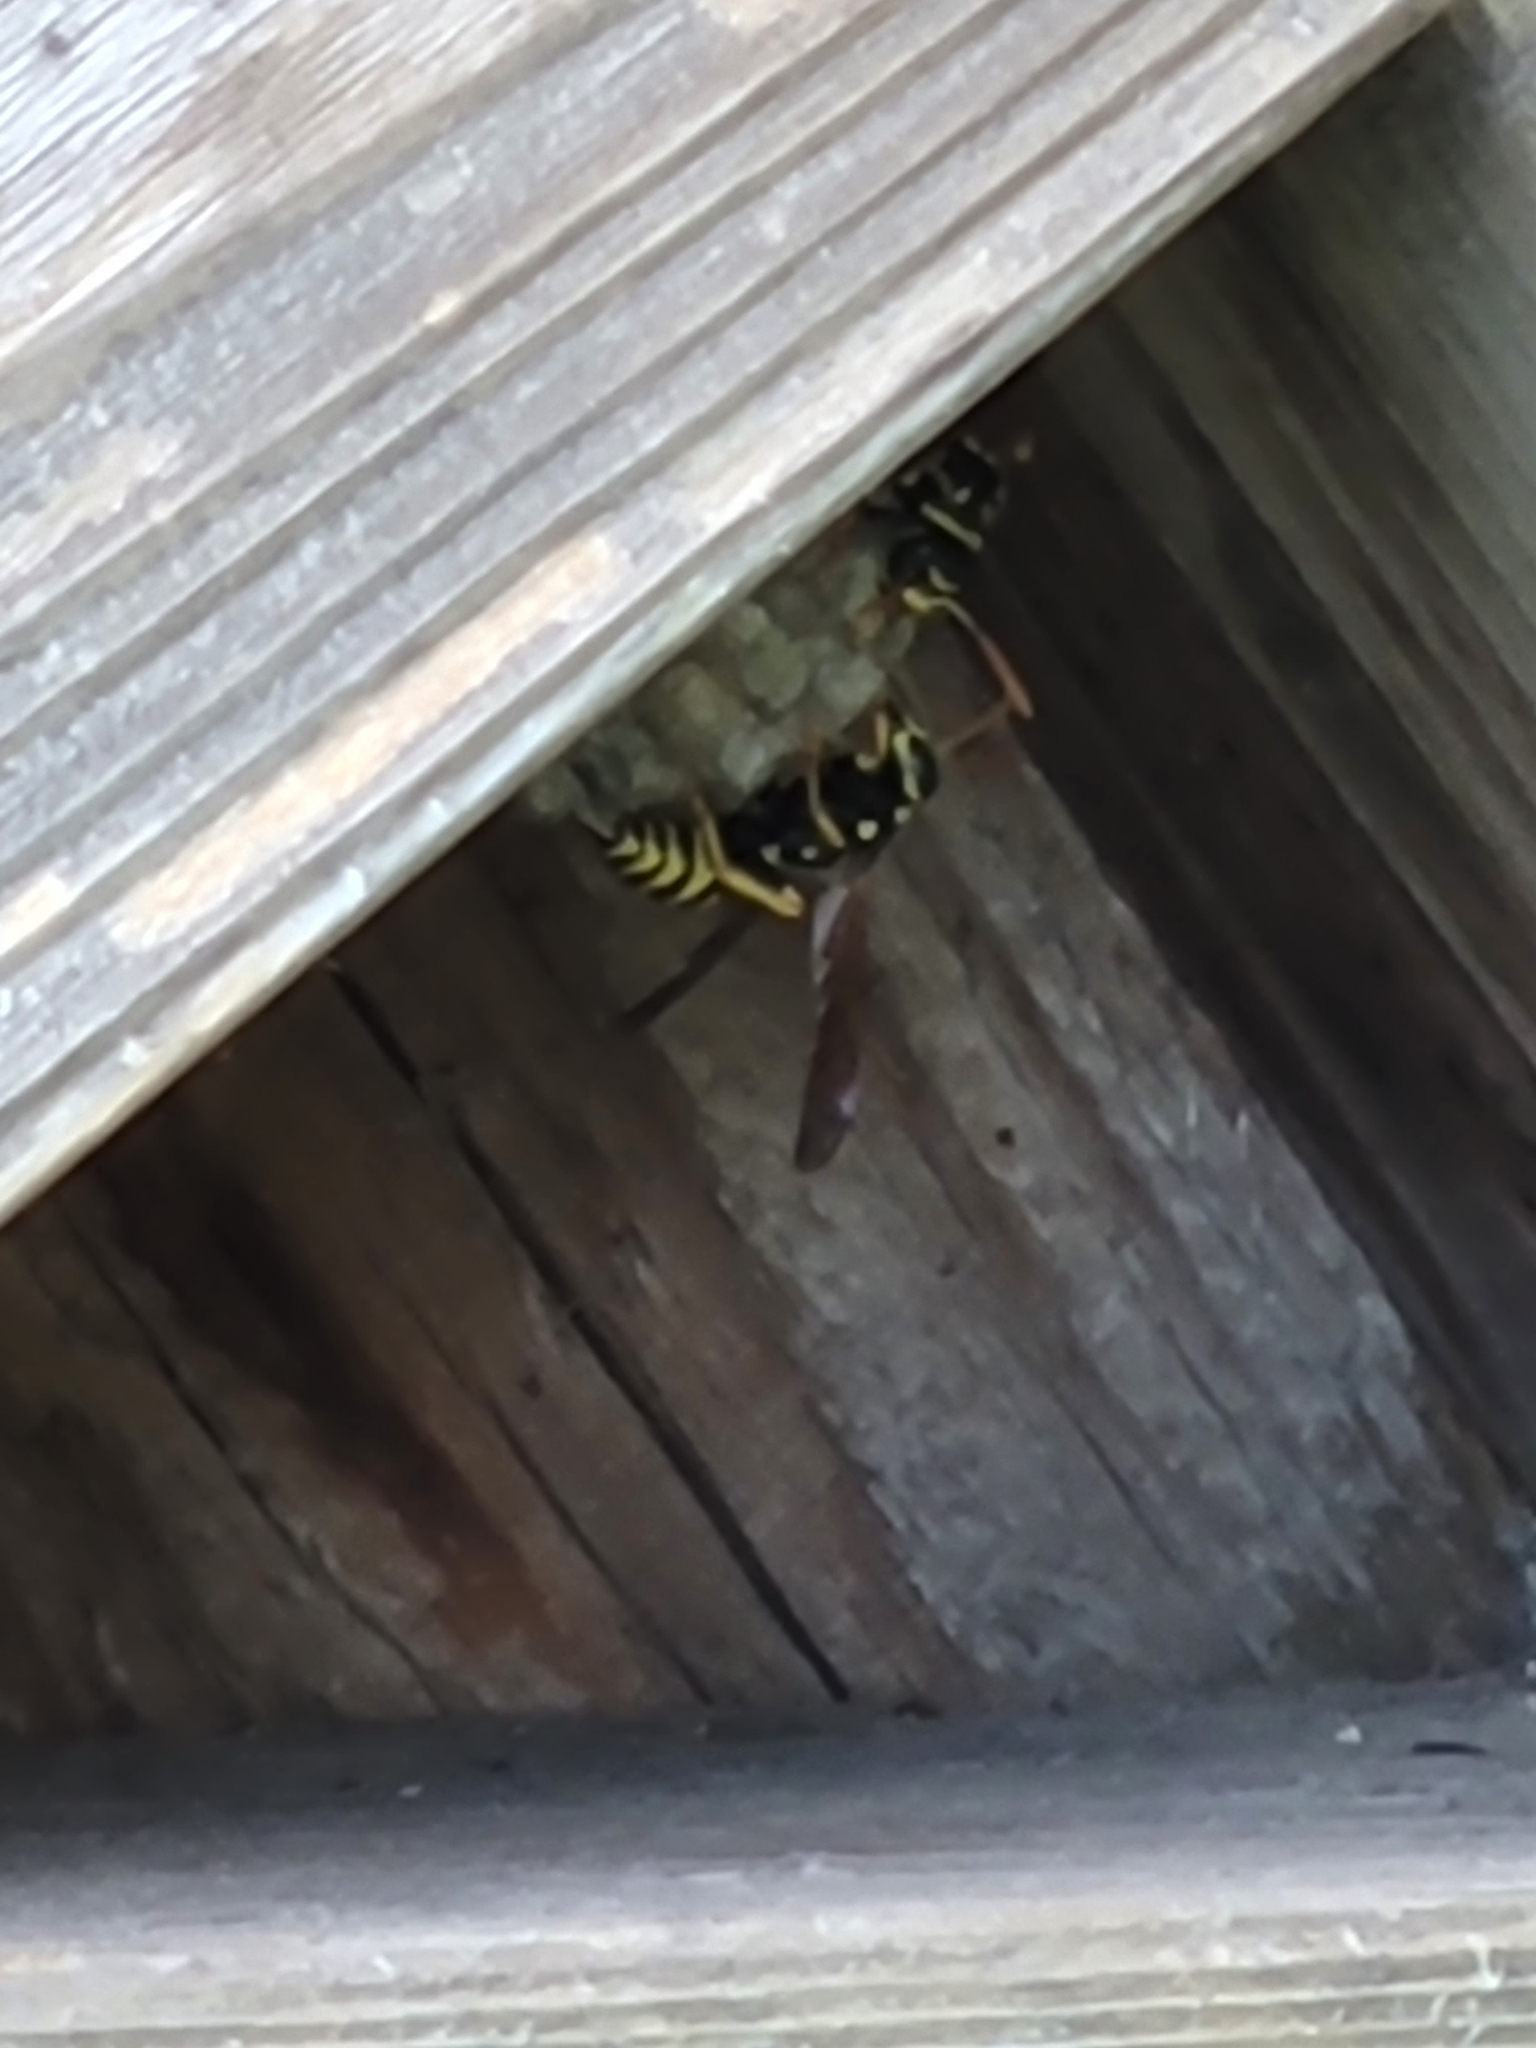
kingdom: Animalia
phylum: Arthropoda
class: Insecta
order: Hymenoptera
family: Eumenidae
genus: Polistes
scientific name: Polistes dominula
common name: Paper wasp
